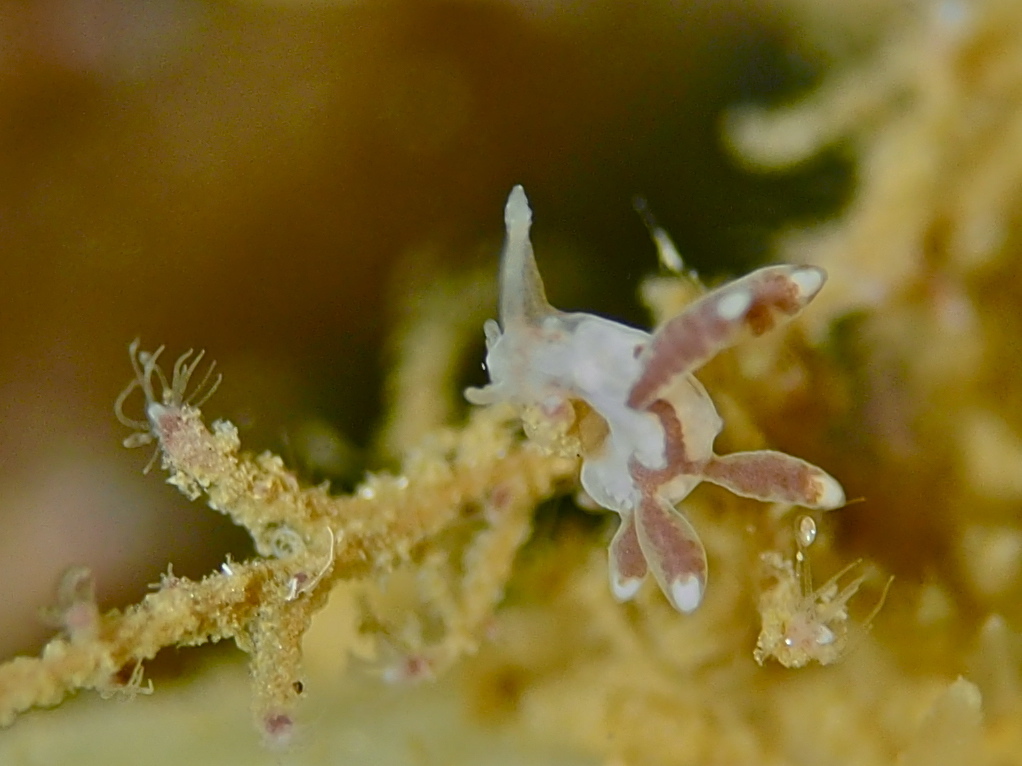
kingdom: Animalia
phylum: Mollusca
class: Gastropoda
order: Nudibranchia
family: Tergipedidae
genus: Tergipes
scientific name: Tergipes tergipes
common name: Johnston's balloon eolis
